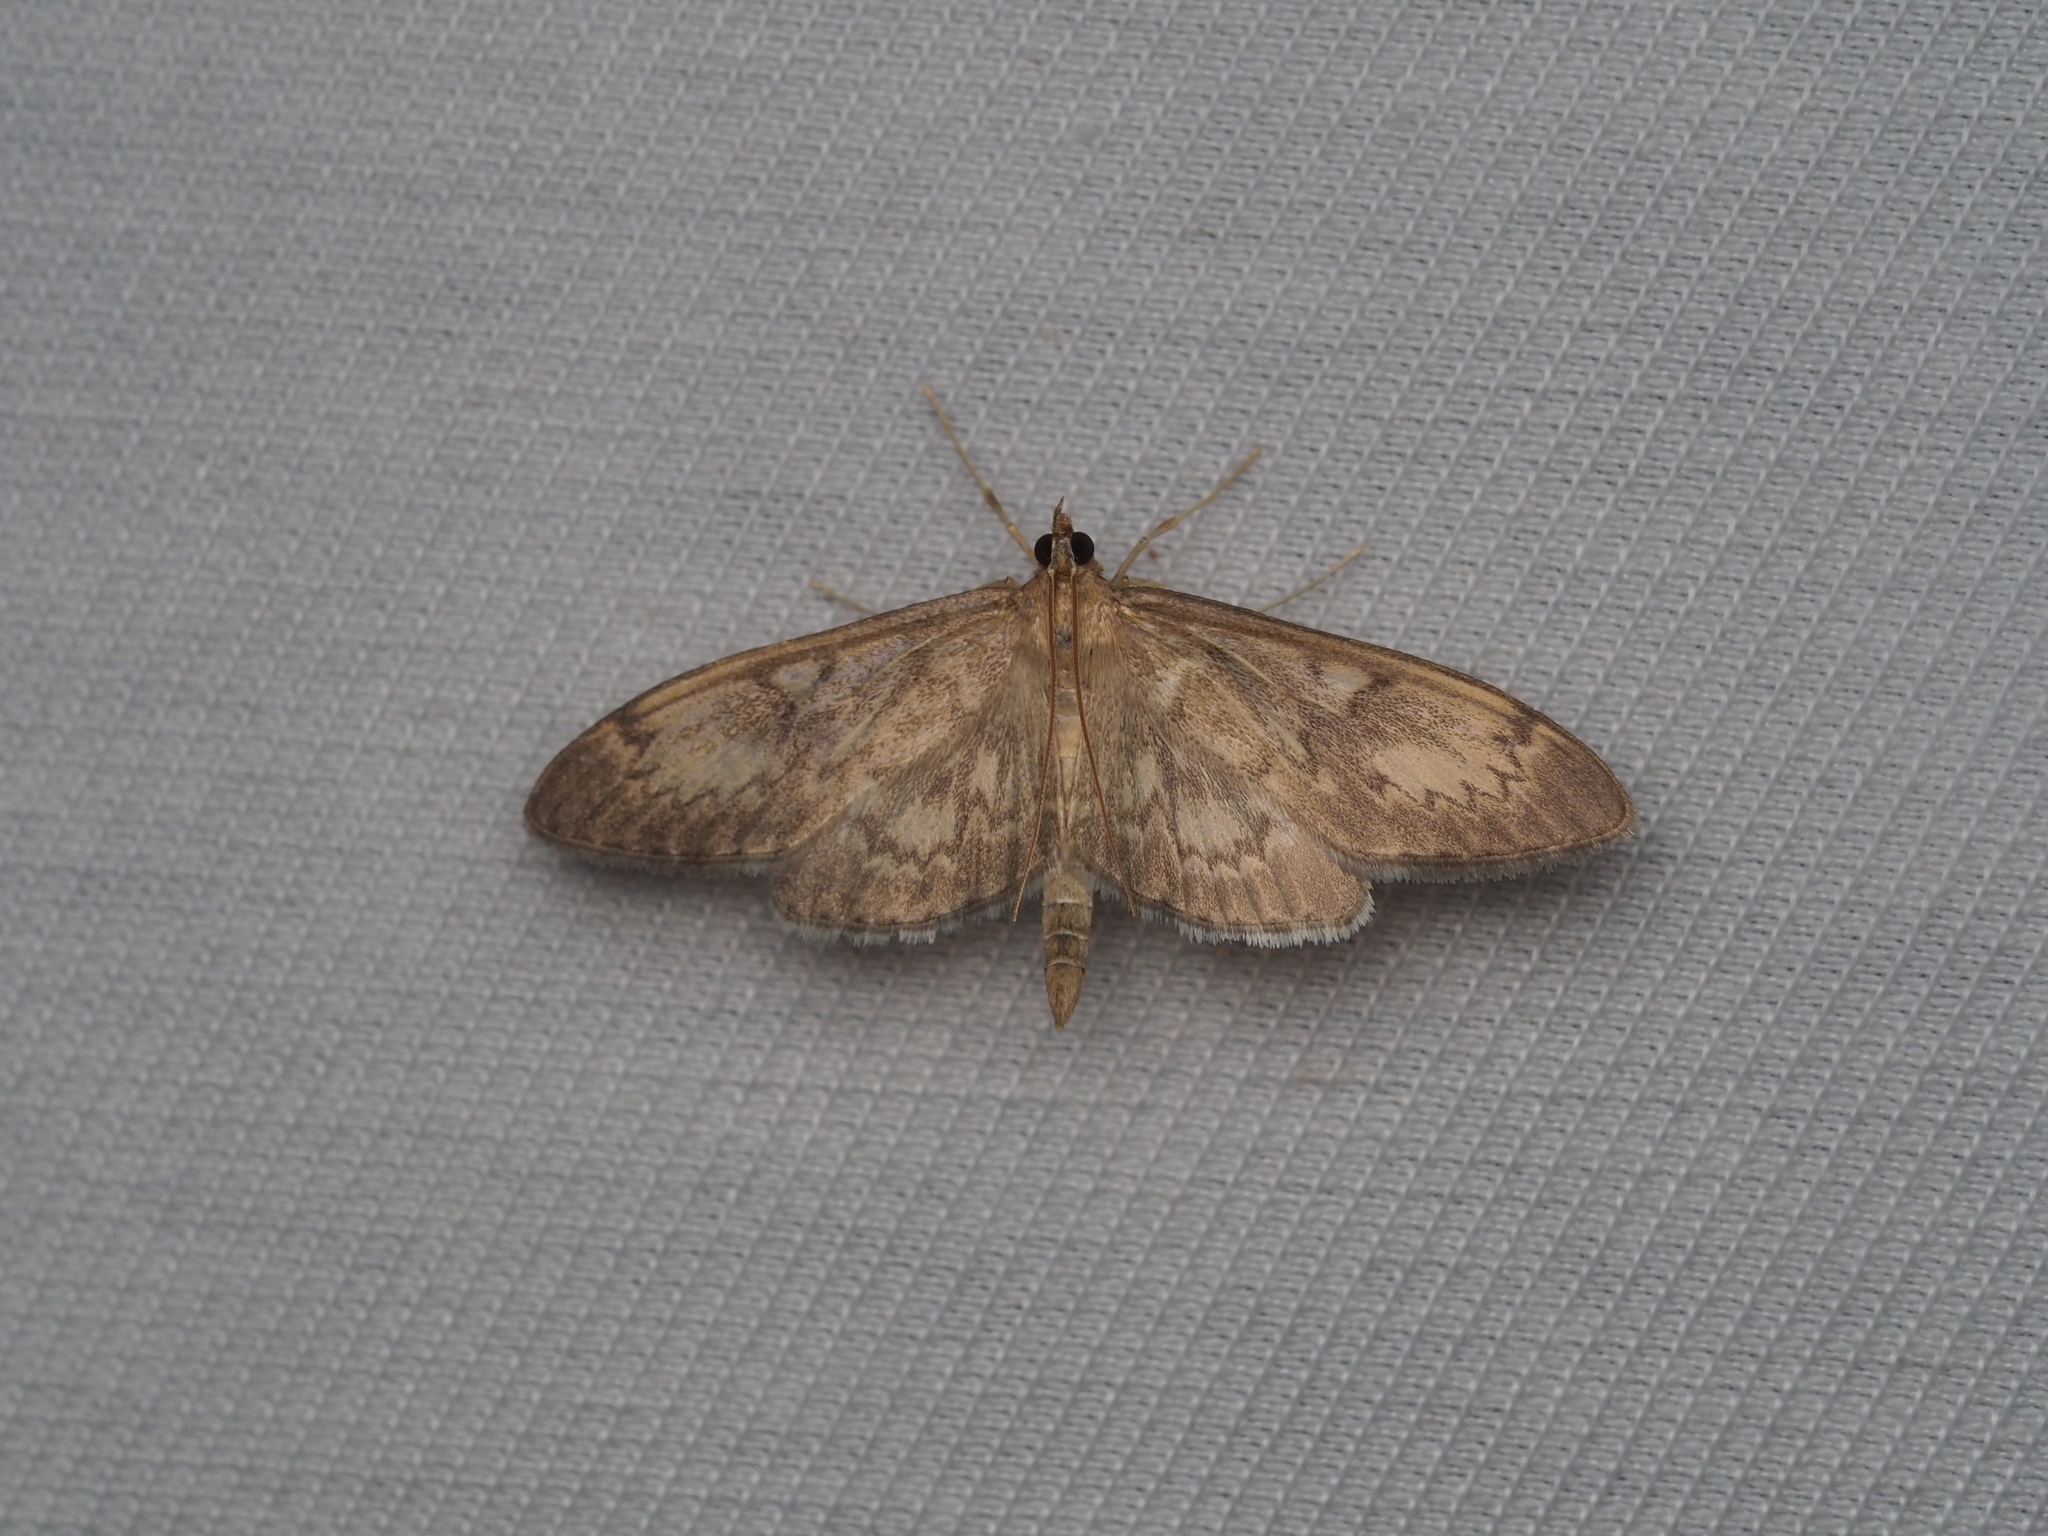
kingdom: Animalia
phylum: Arthropoda
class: Insecta
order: Lepidoptera
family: Crambidae
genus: Anania
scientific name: Anania lancealis
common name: Long-winged pearl
